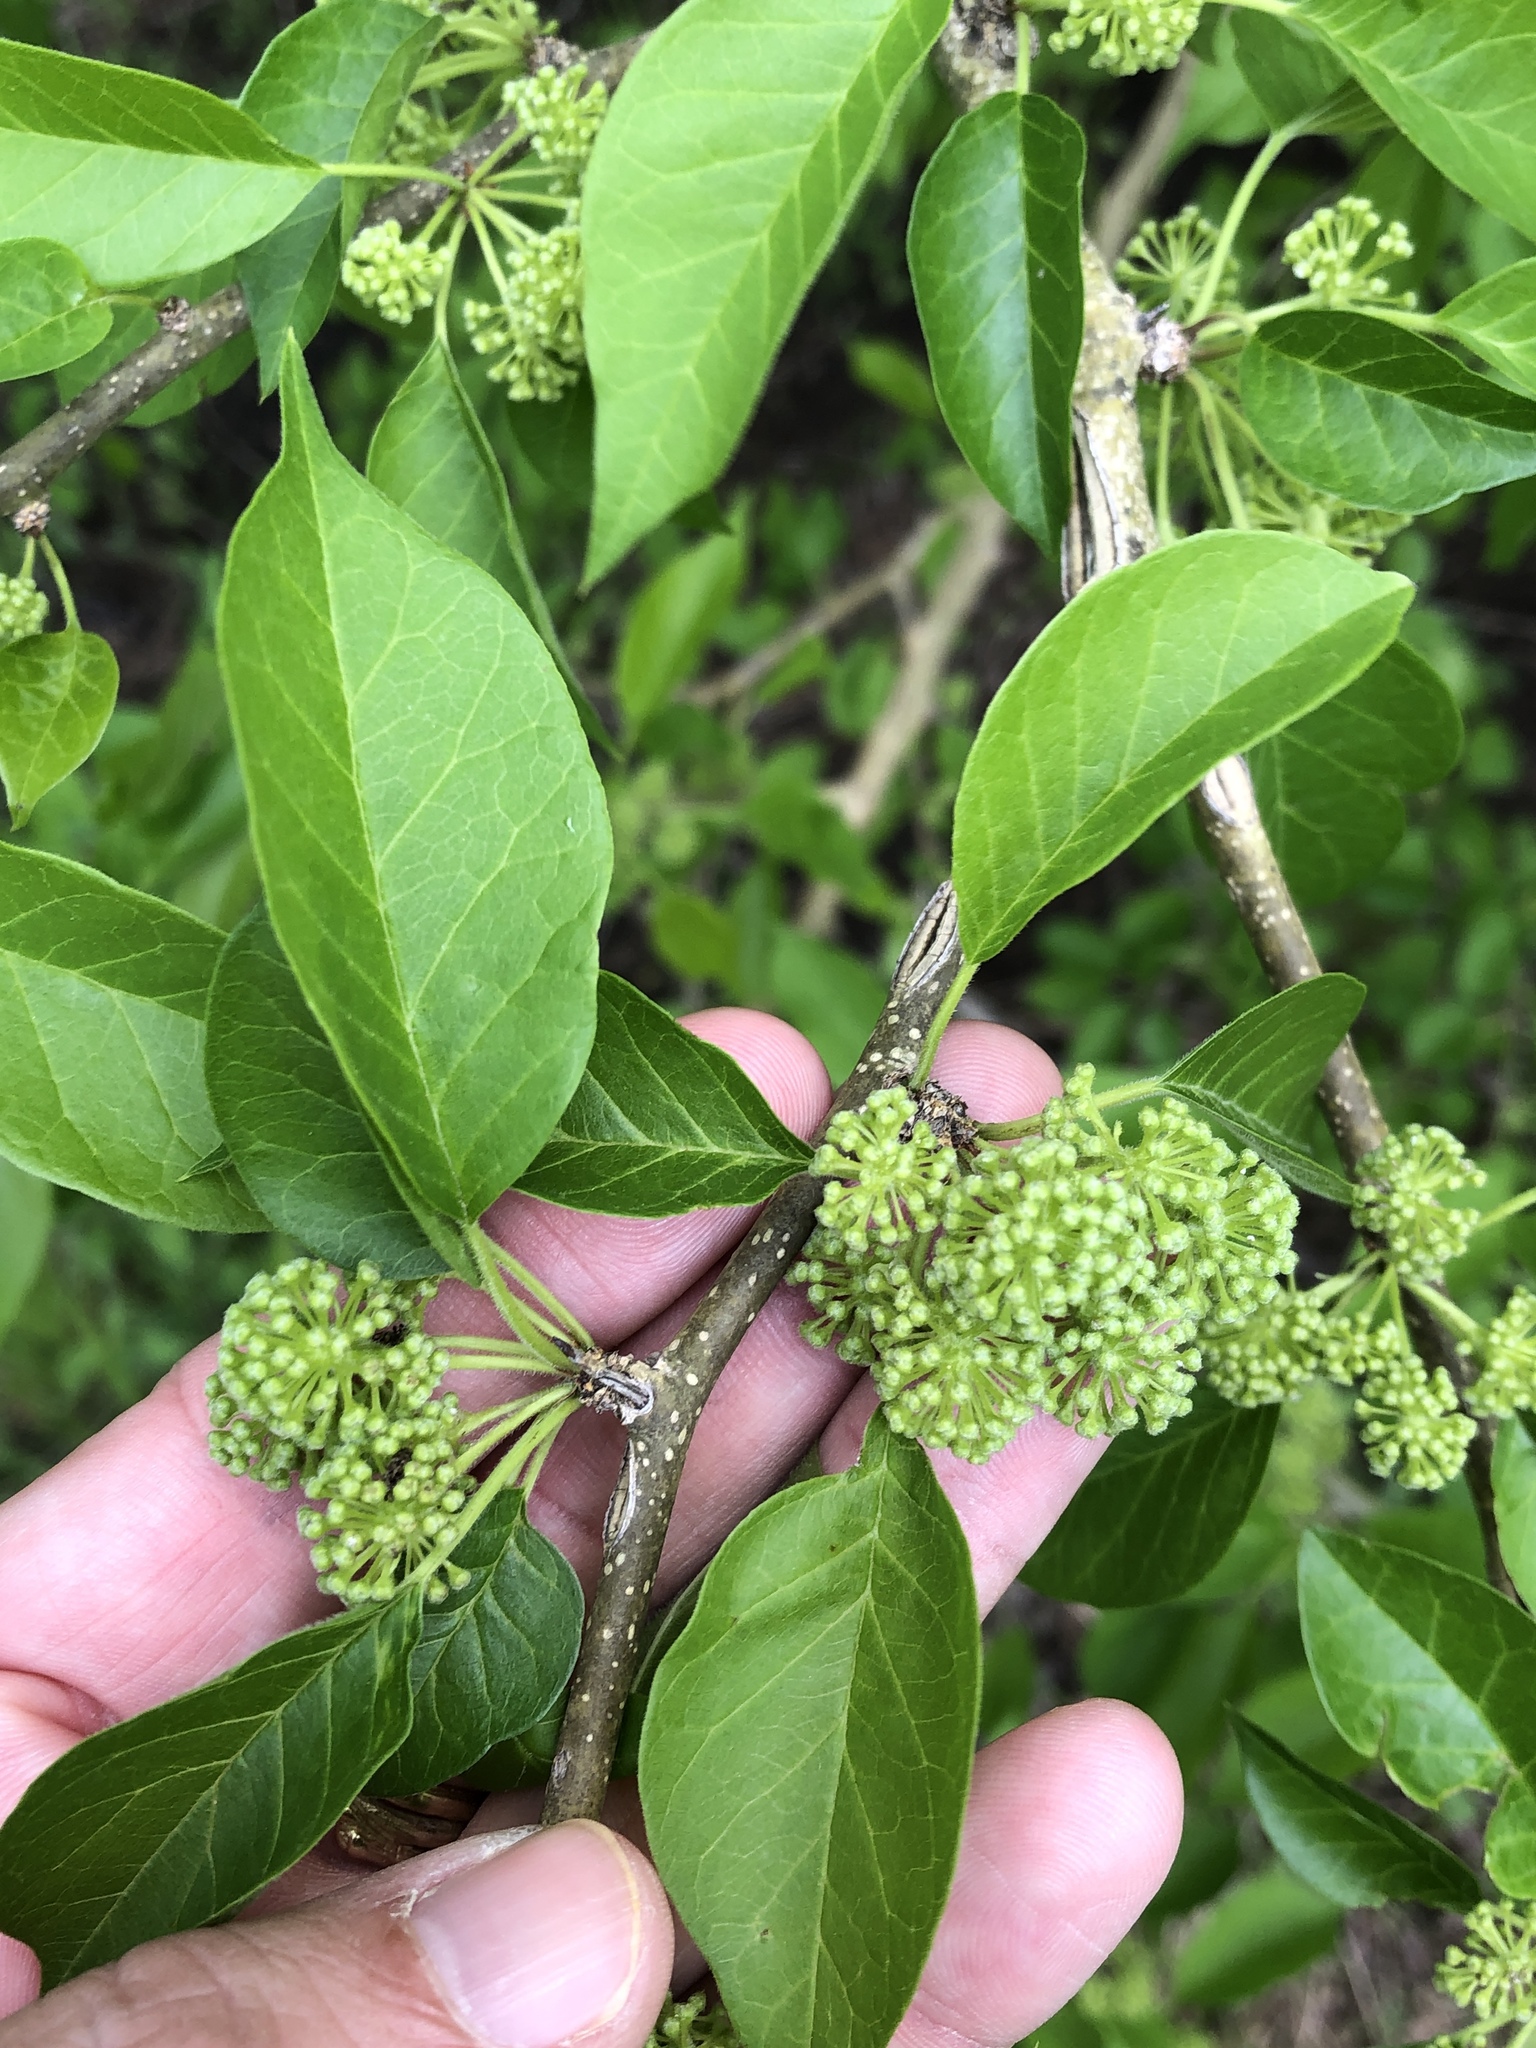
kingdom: Plantae
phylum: Tracheophyta
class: Magnoliopsida
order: Rosales
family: Moraceae
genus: Maclura
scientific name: Maclura pomifera
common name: Osage-orange
